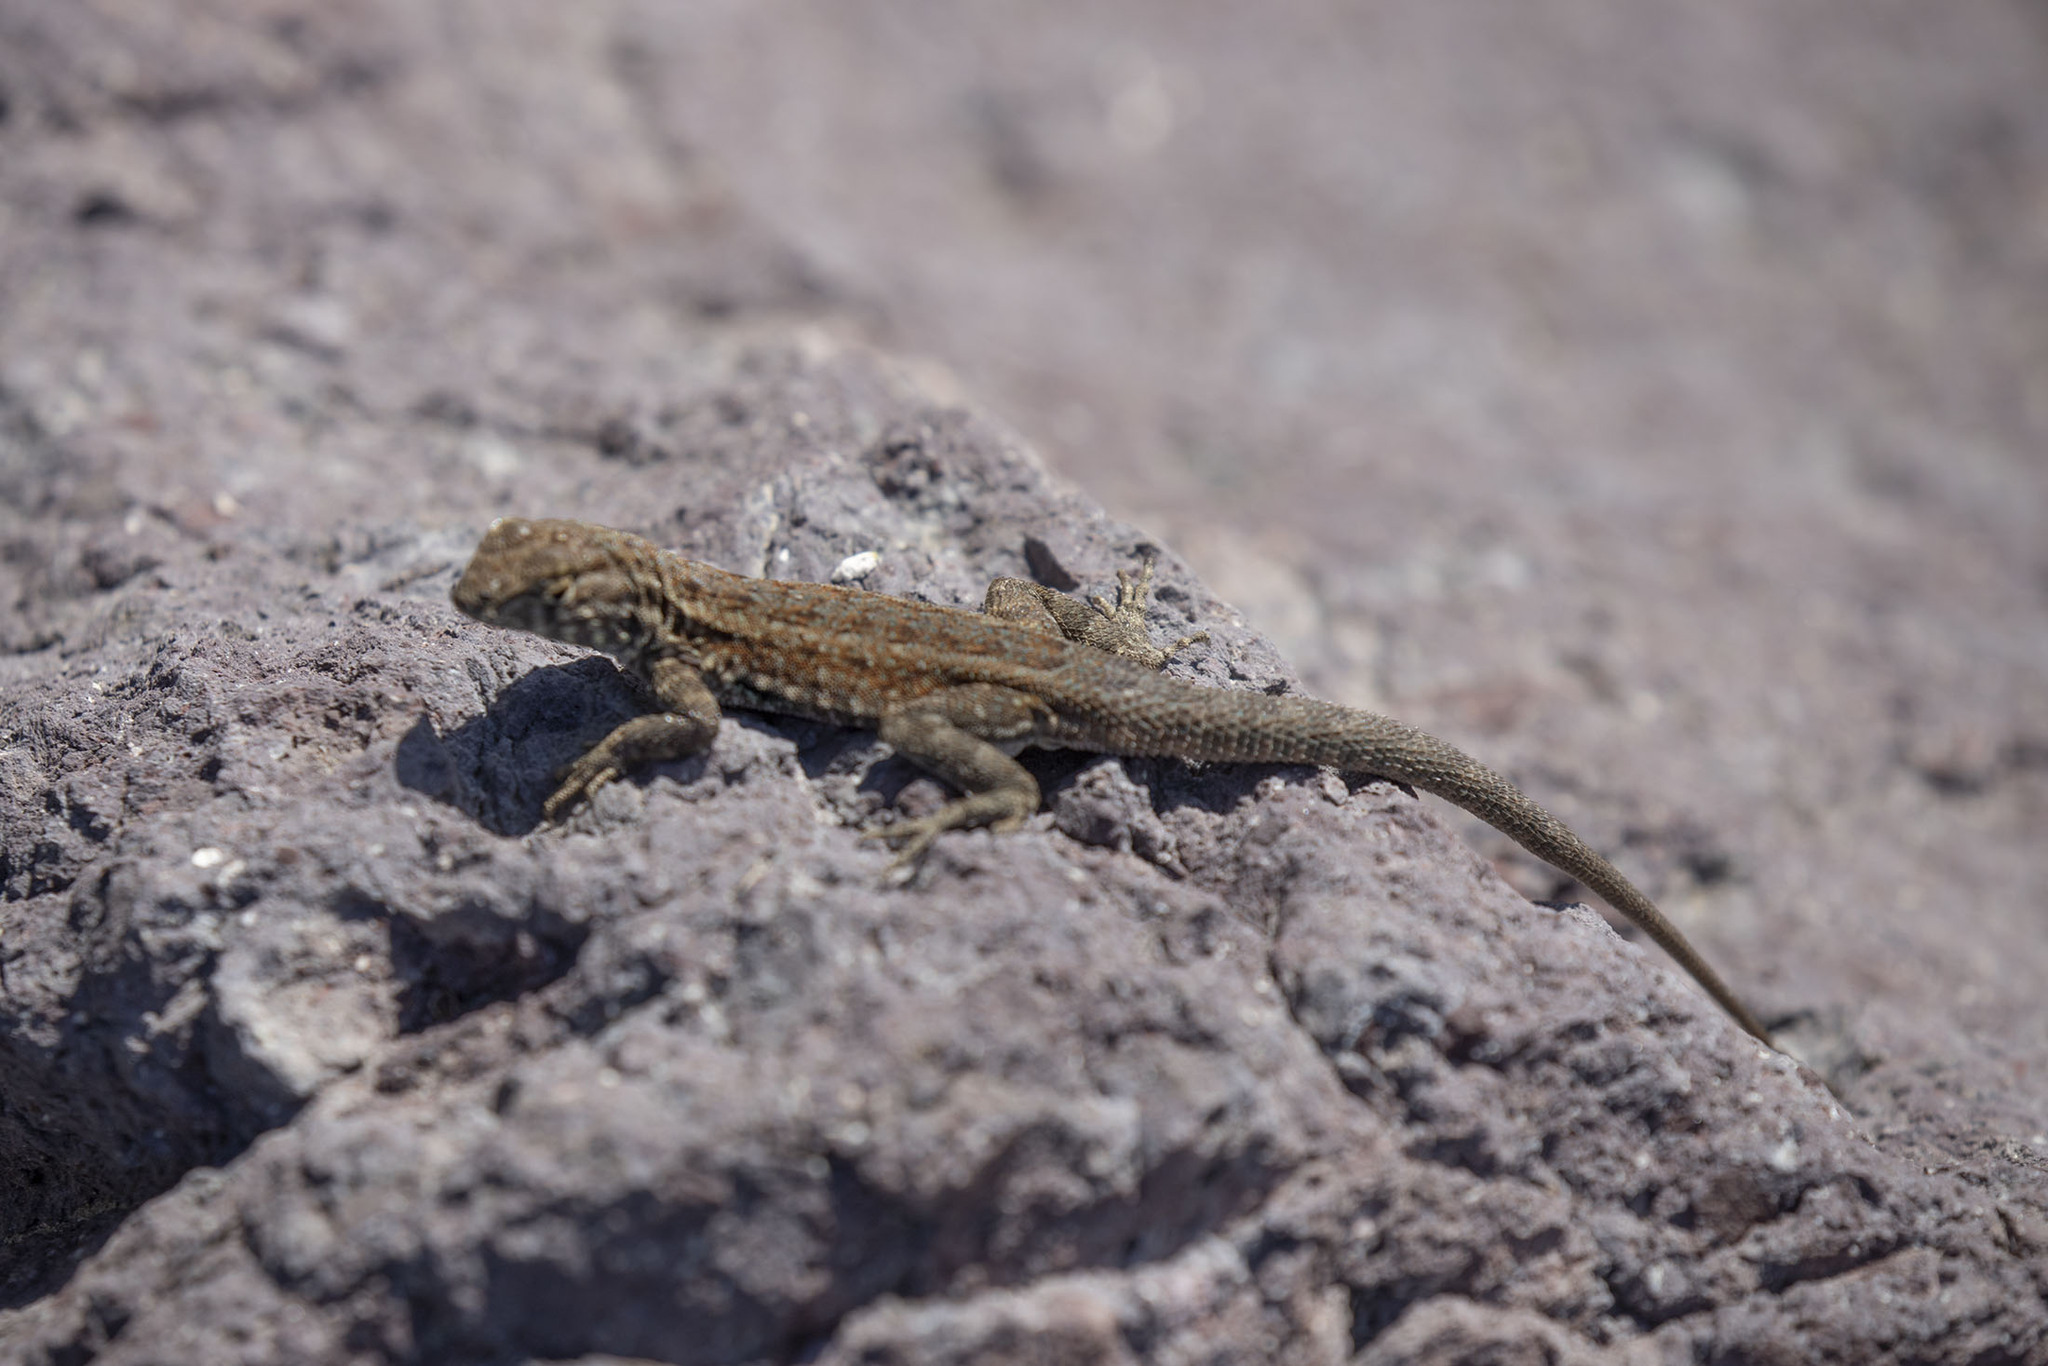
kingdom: Animalia
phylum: Chordata
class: Squamata
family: Phrynosomatidae
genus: Uta
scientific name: Uta stansburiana
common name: Side-blotched lizard
